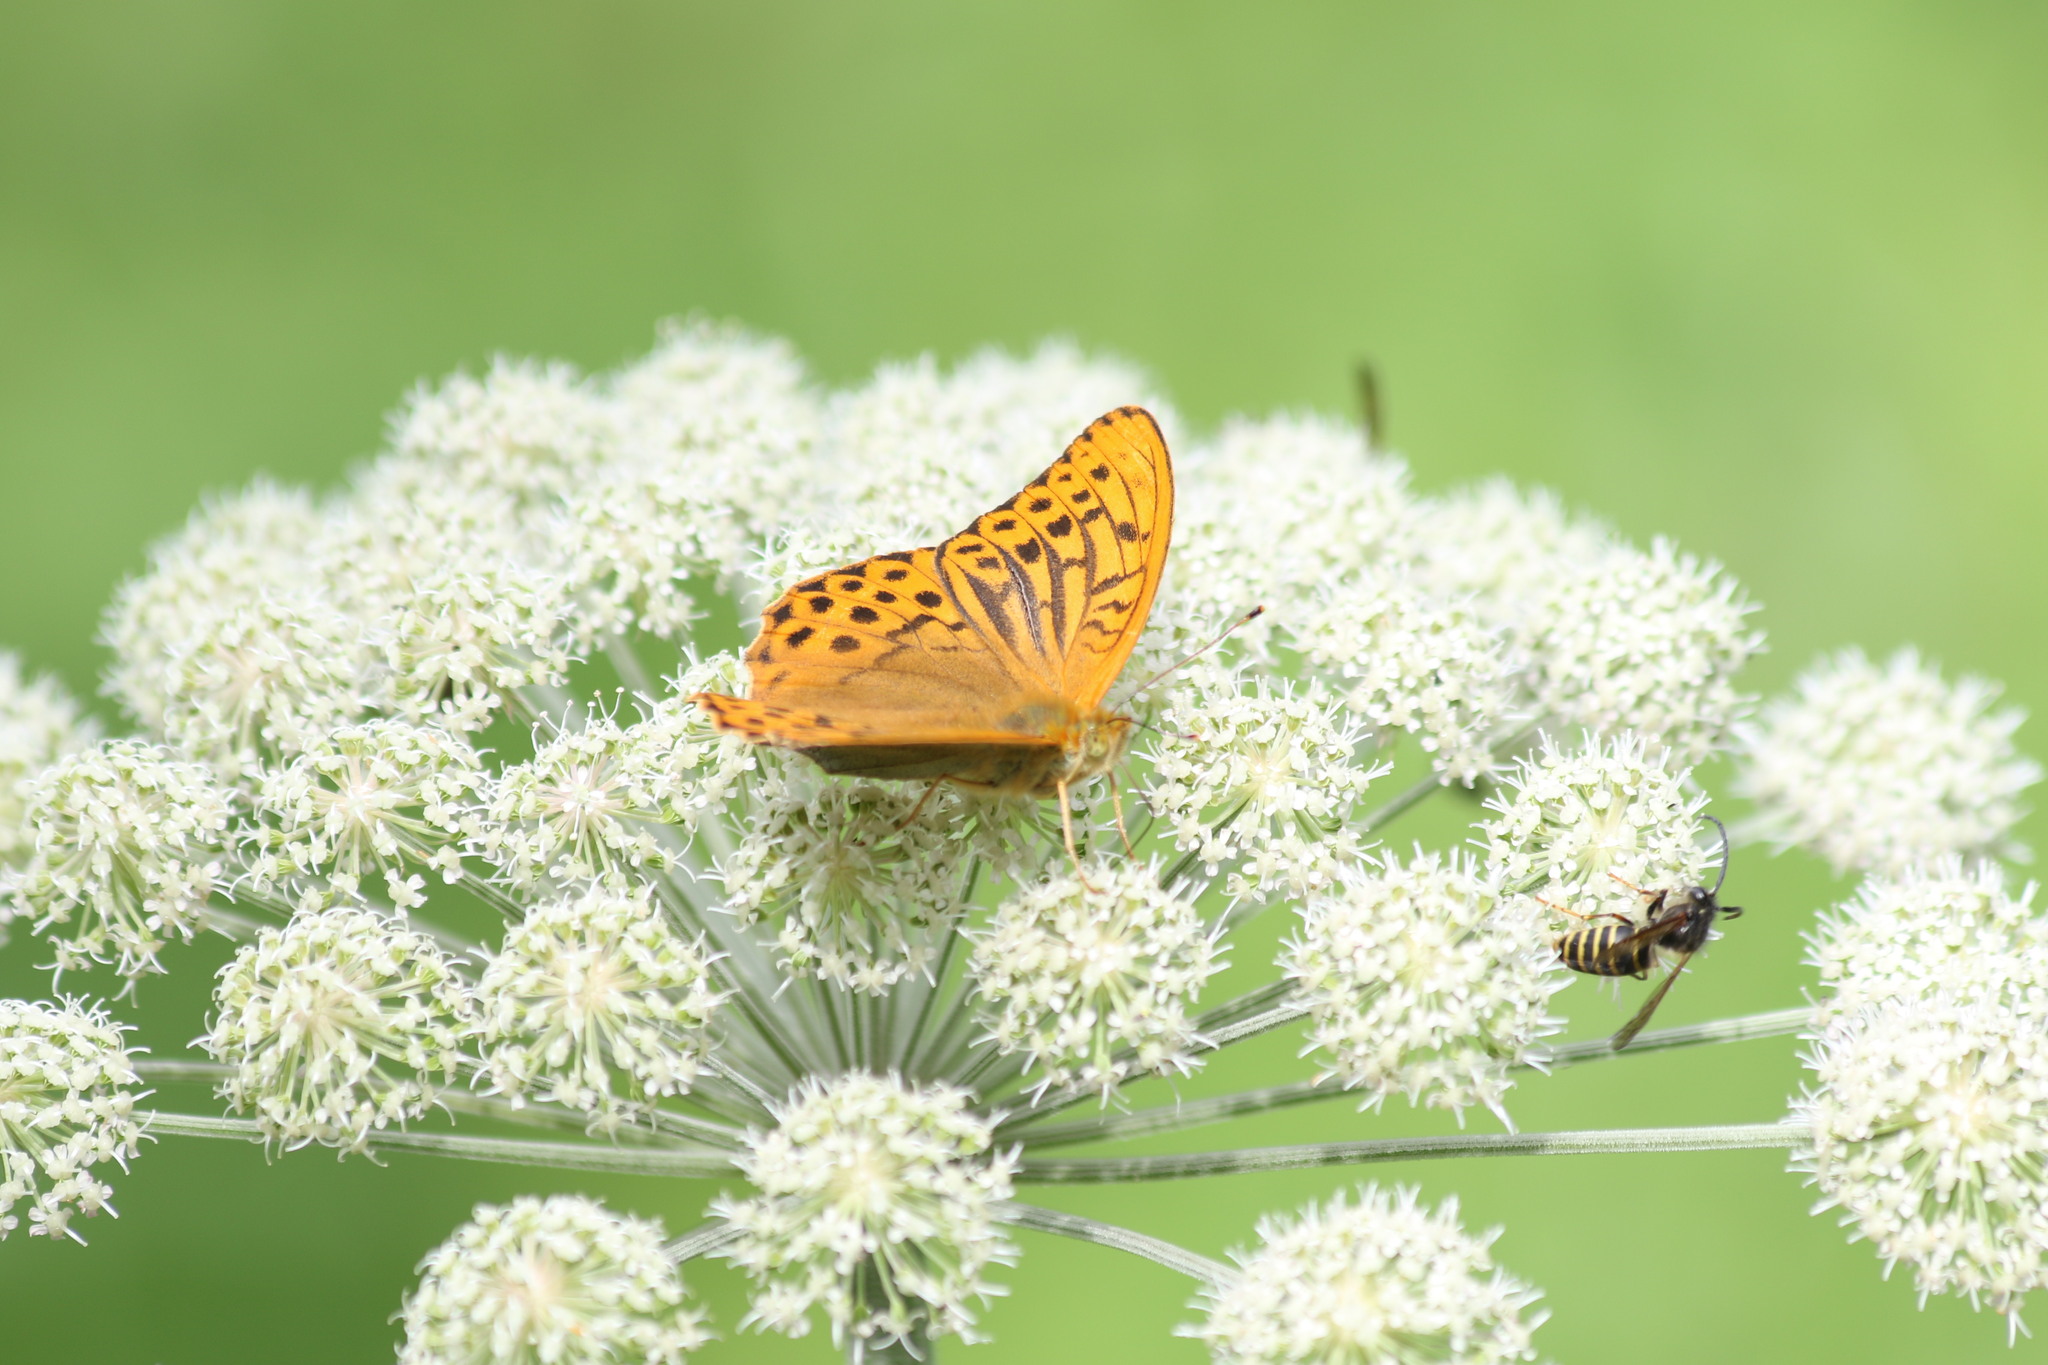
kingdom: Animalia
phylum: Arthropoda
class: Insecta
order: Lepidoptera
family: Nymphalidae
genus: Argynnis
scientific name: Argynnis paphia
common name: Silver-washed fritillary
